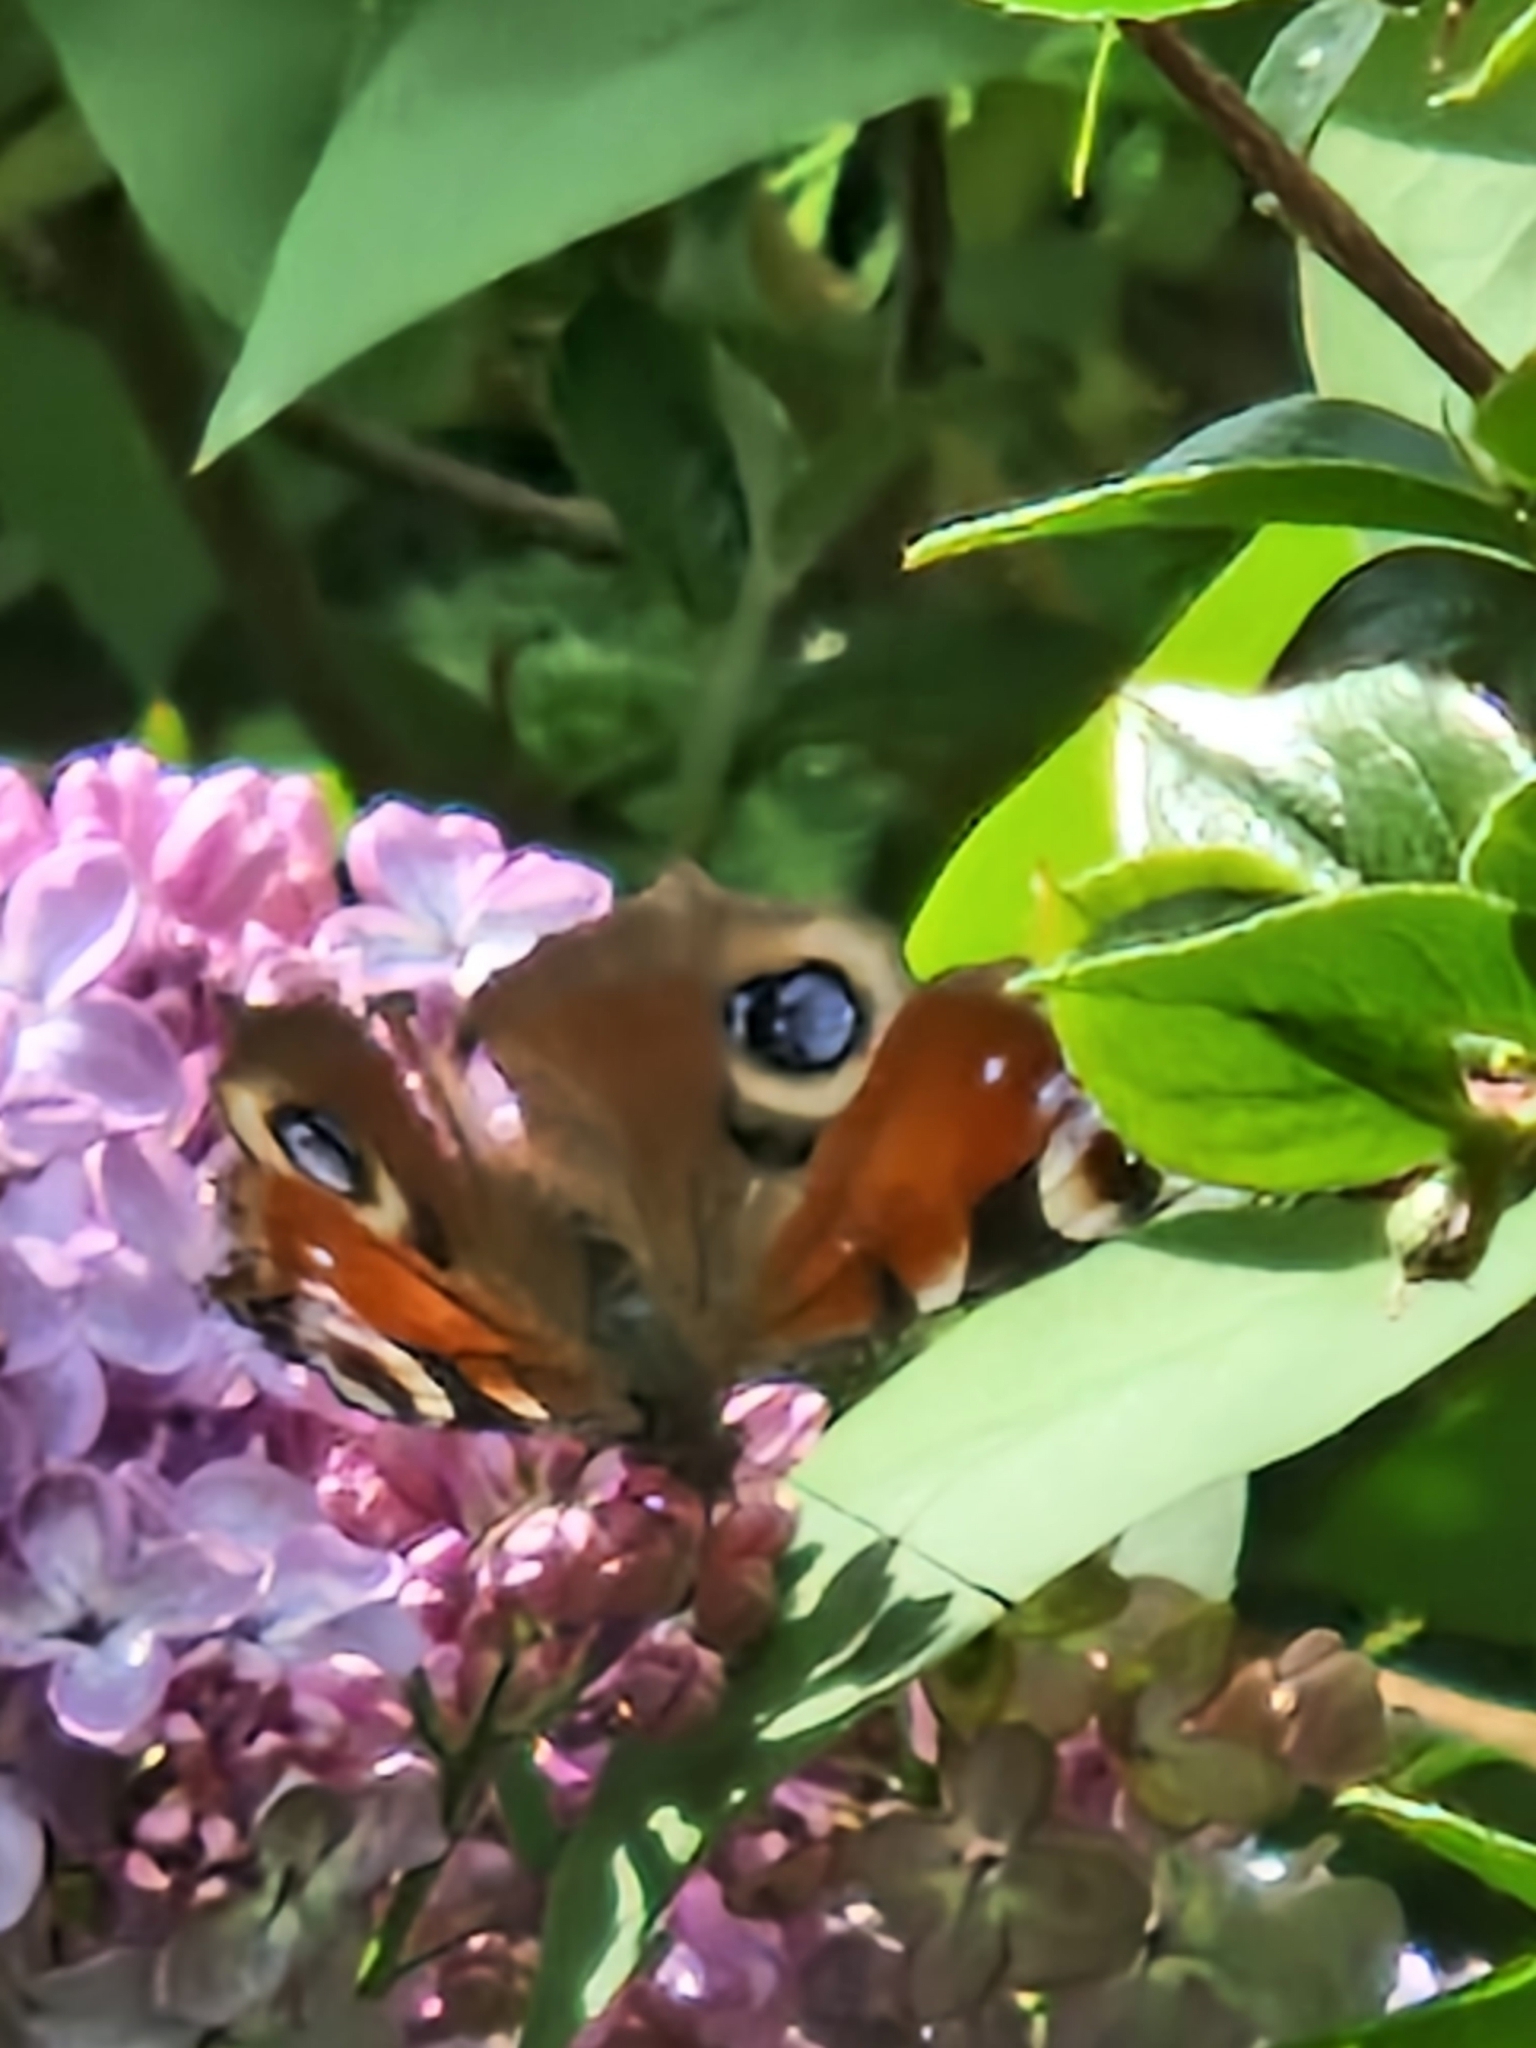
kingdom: Animalia
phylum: Arthropoda
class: Insecta
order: Lepidoptera
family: Nymphalidae
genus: Aglais
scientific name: Aglais io
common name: Peacock
